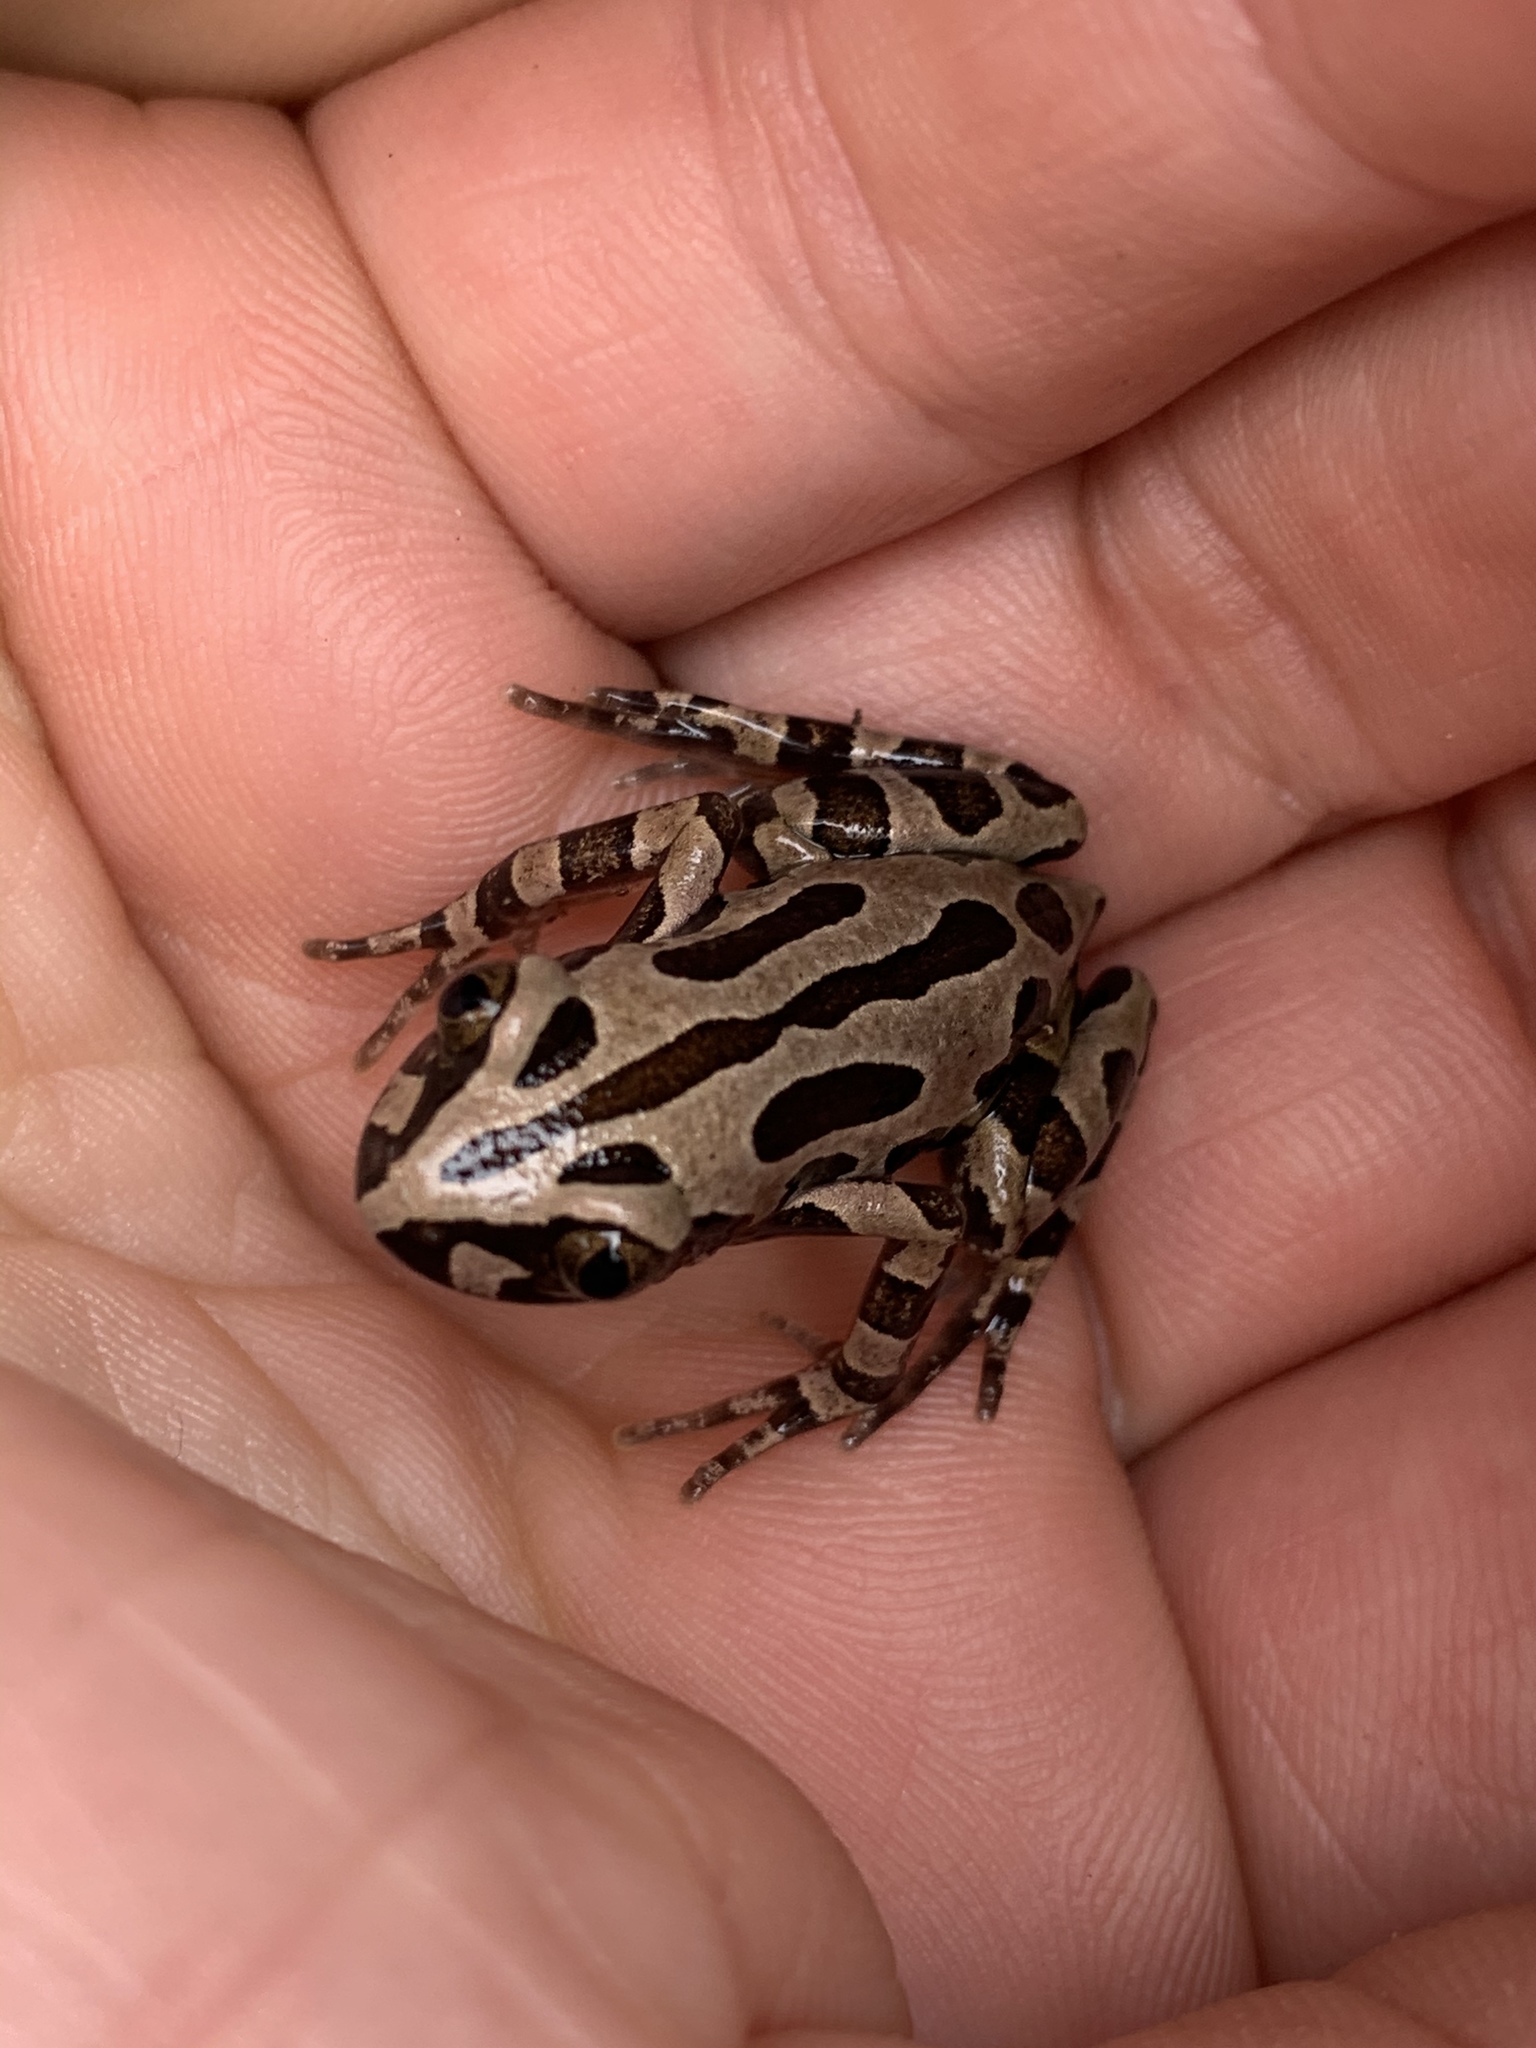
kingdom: Animalia
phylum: Chordata
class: Amphibia
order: Anura
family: Hyperoliidae
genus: Kassina
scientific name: Kassina senegalensis
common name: Senegal land frog
